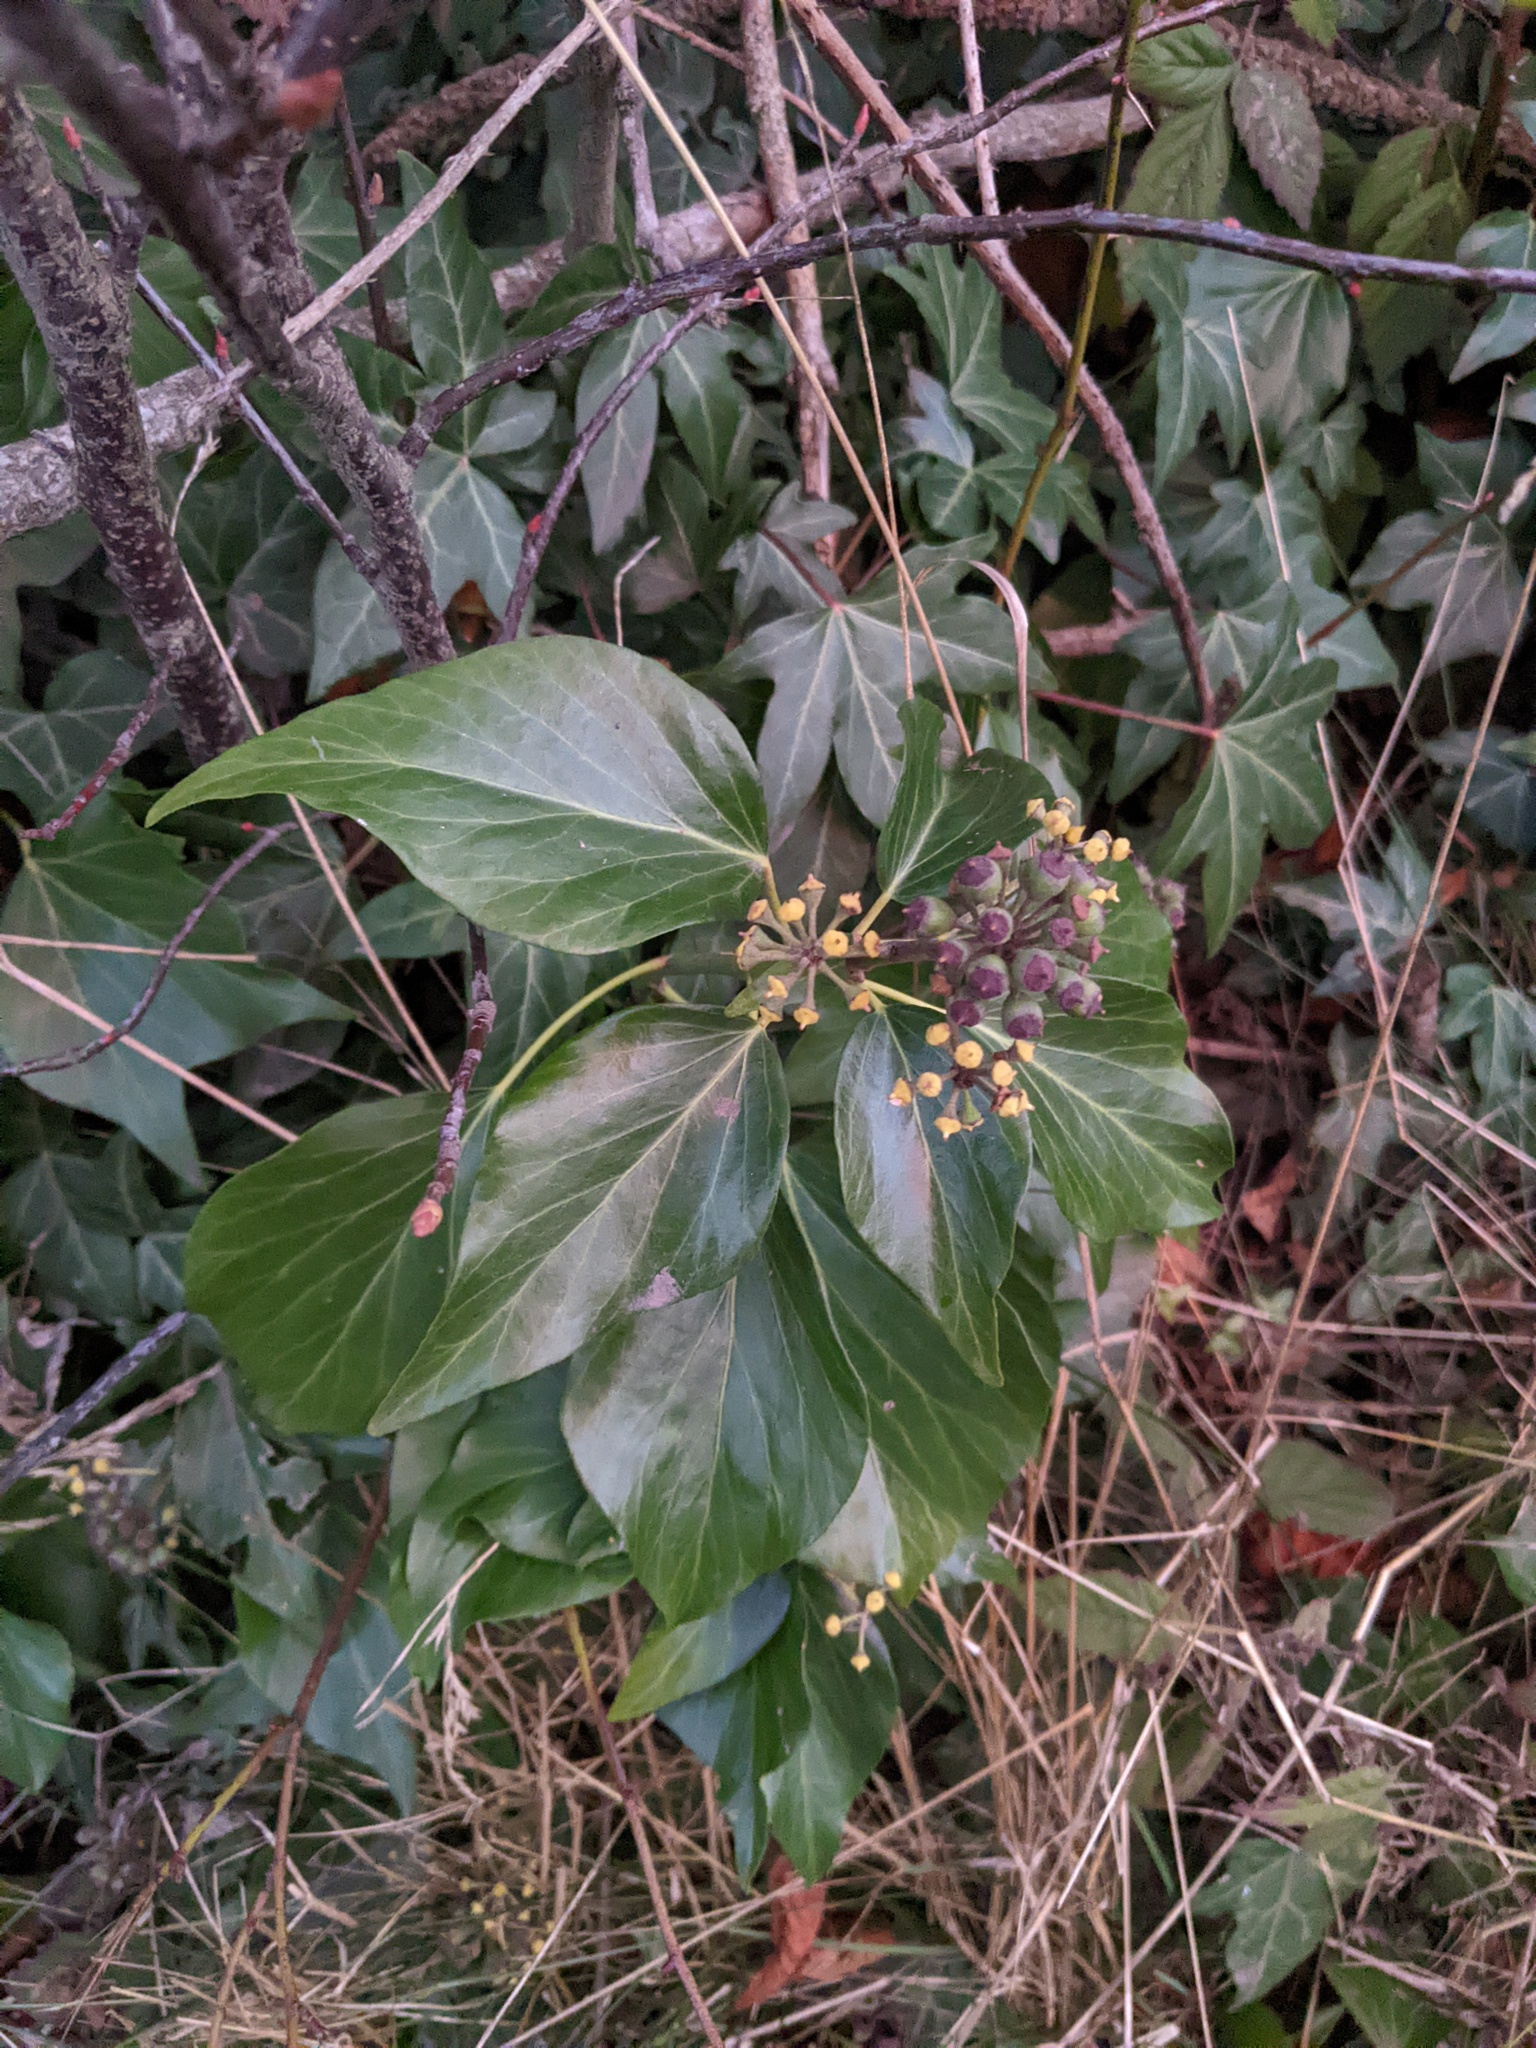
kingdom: Plantae
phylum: Tracheophyta
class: Magnoliopsida
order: Apiales
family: Araliaceae
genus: Hedera
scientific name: Hedera helix
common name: Ivy
